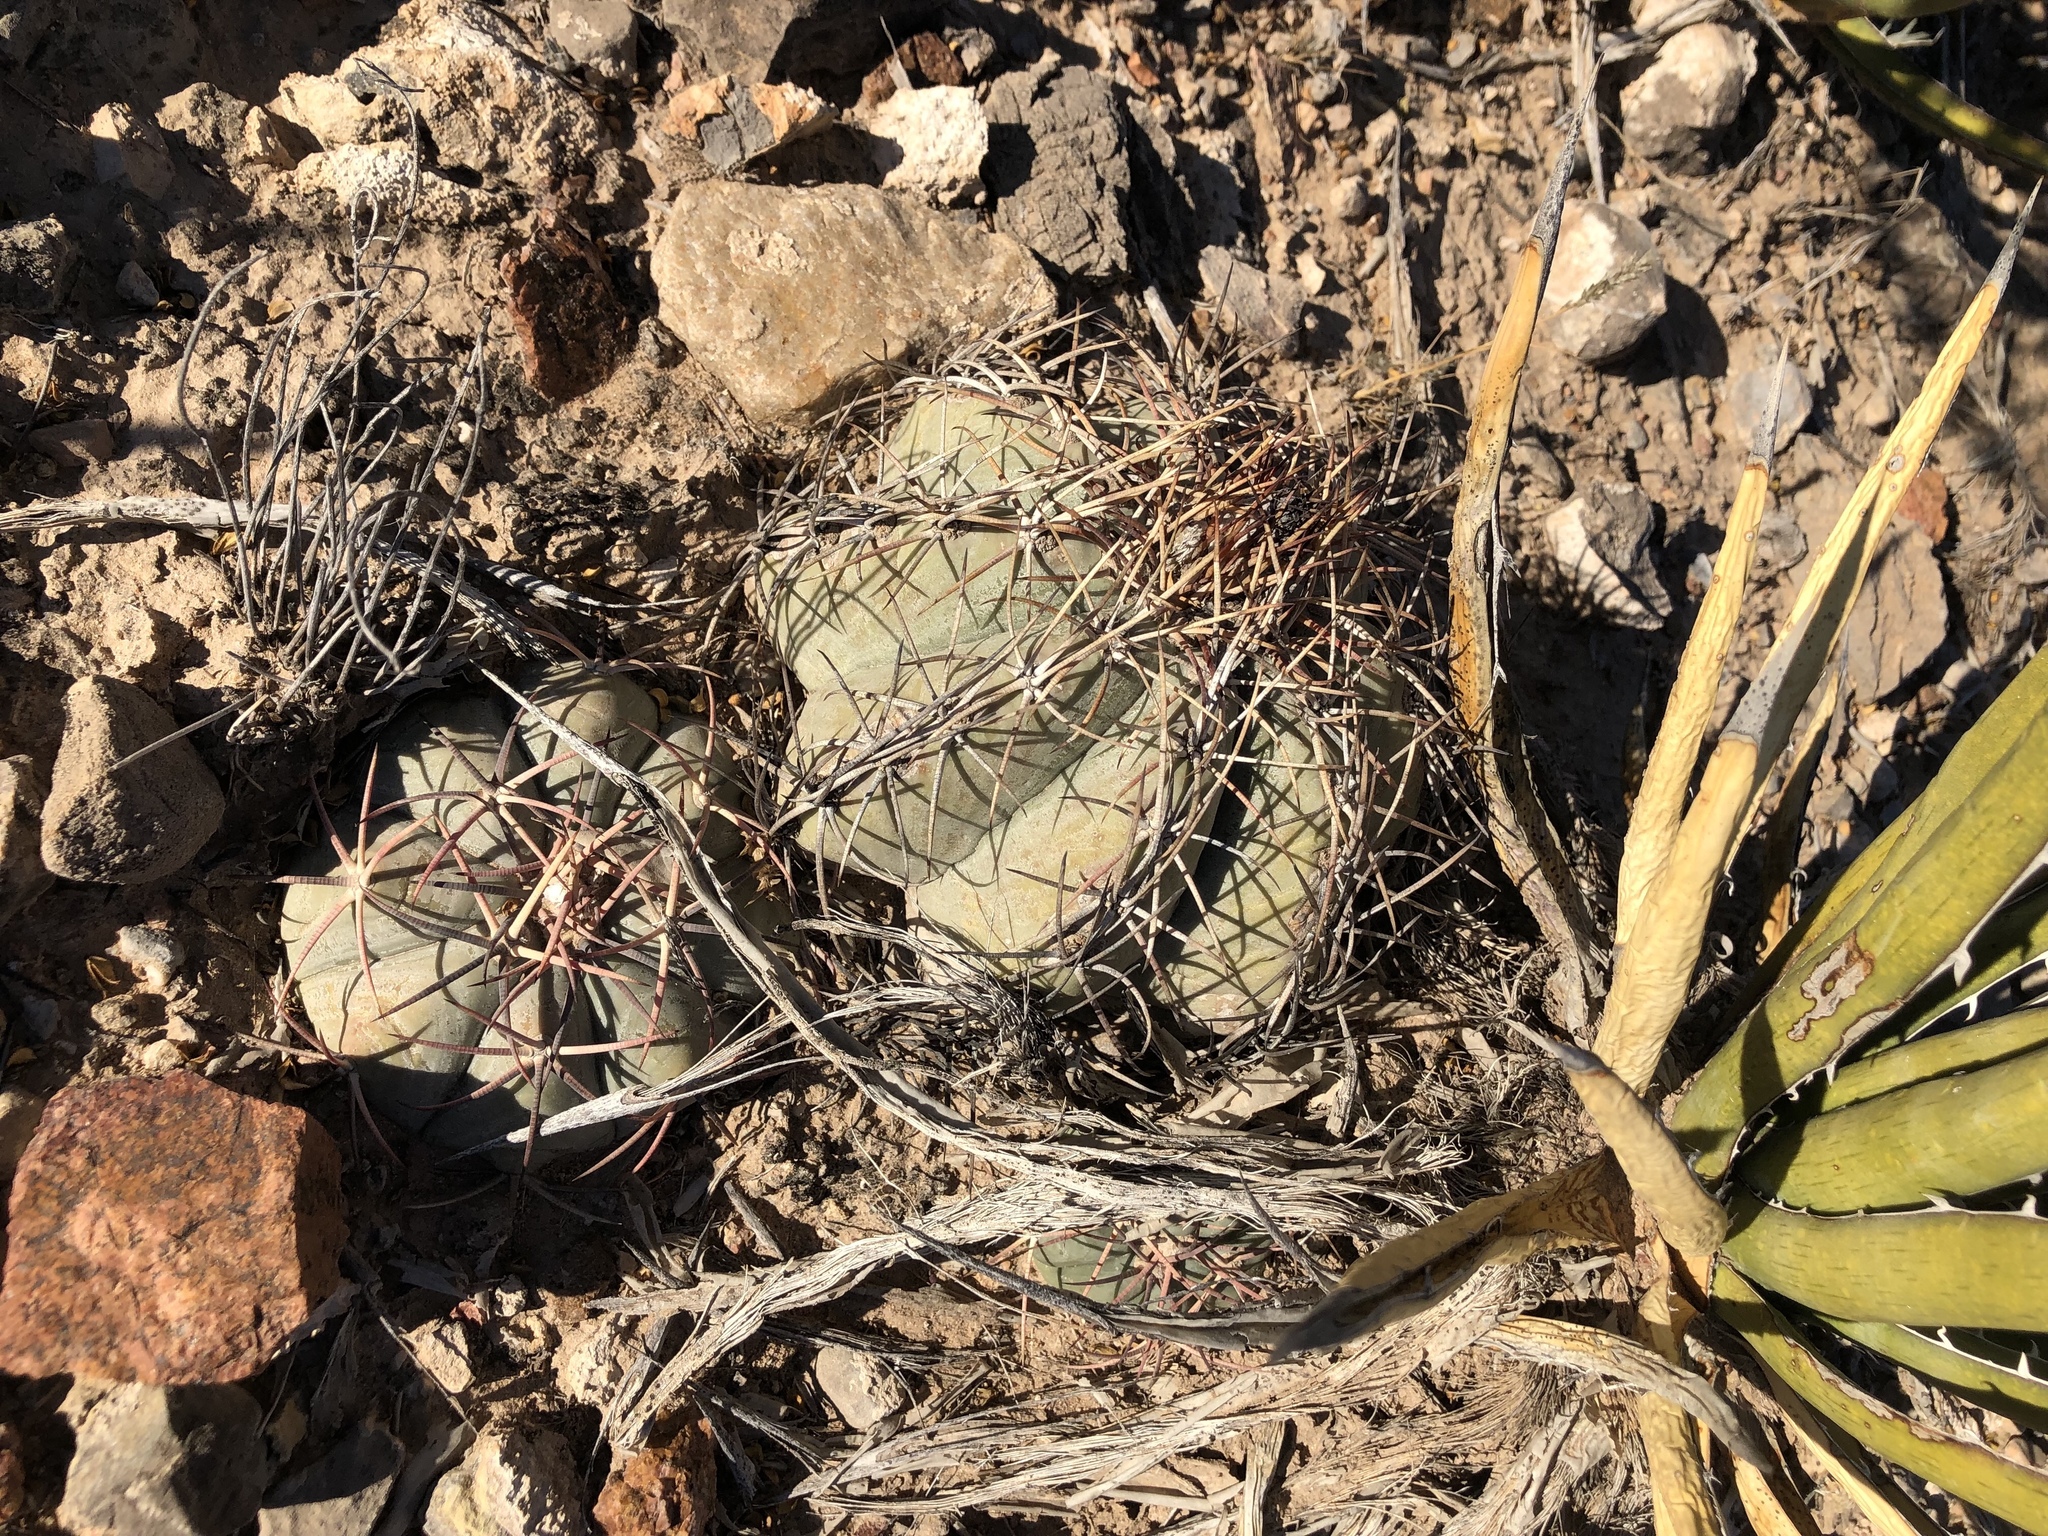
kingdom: Plantae
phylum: Tracheophyta
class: Magnoliopsida
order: Caryophyllales
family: Cactaceae
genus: Echinocactus
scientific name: Echinocactus horizonthalonius
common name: Devilshead
